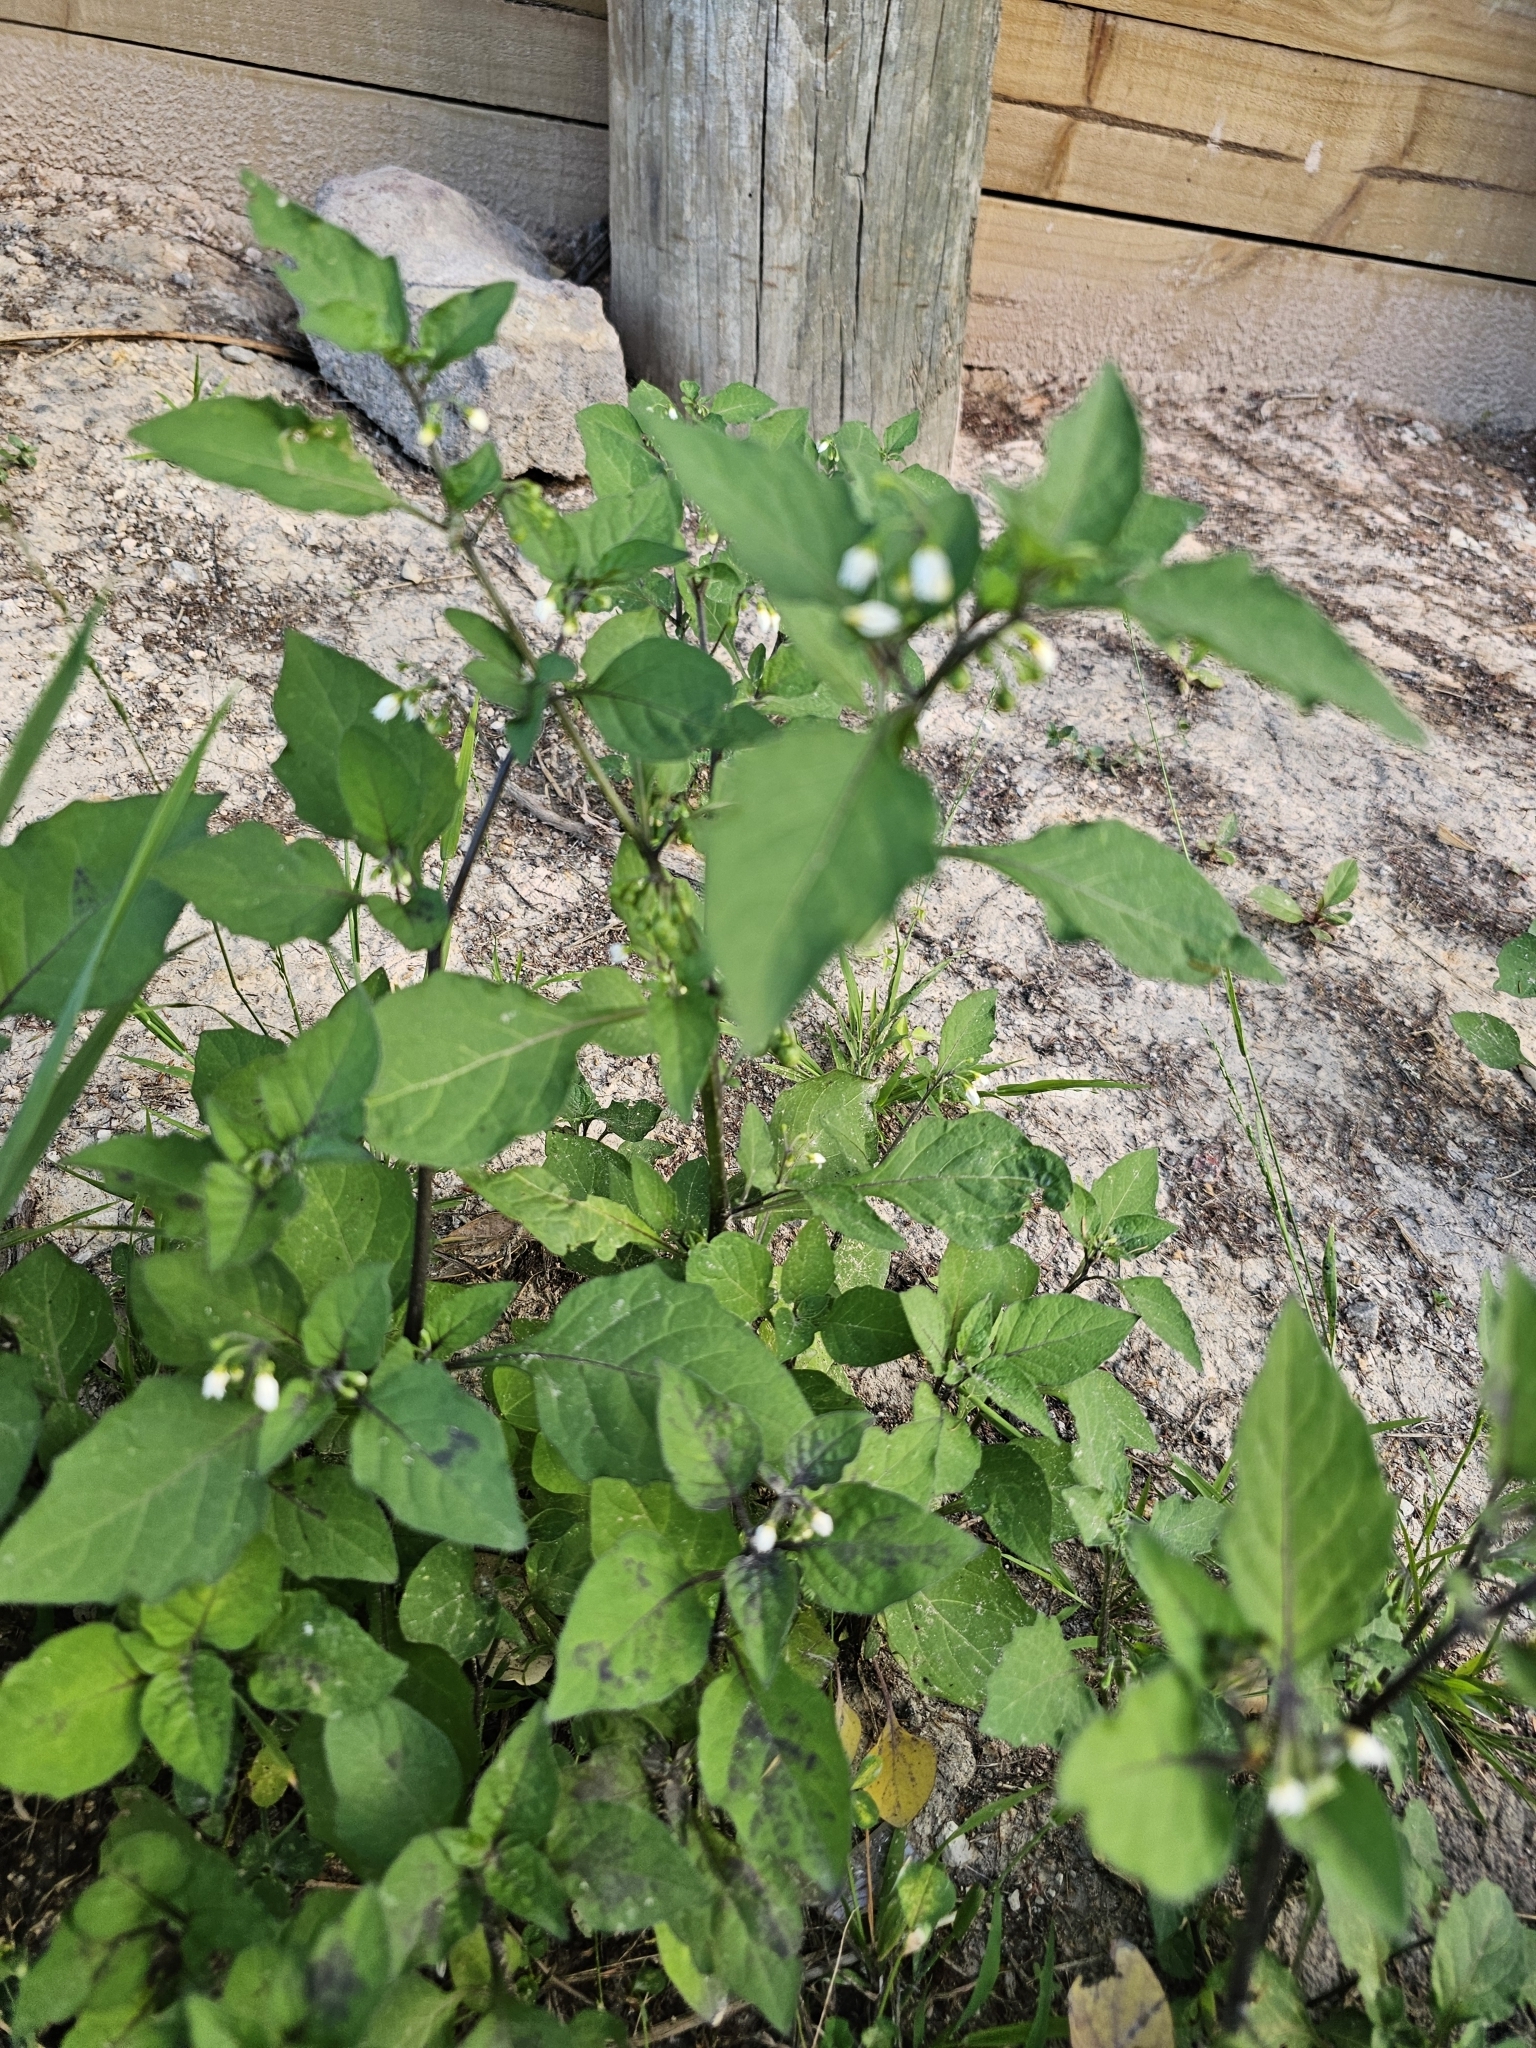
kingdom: Plantae
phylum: Tracheophyta
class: Magnoliopsida
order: Solanales
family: Solanaceae
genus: Solanum
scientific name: Solanum nigrum
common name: Black nightshade
